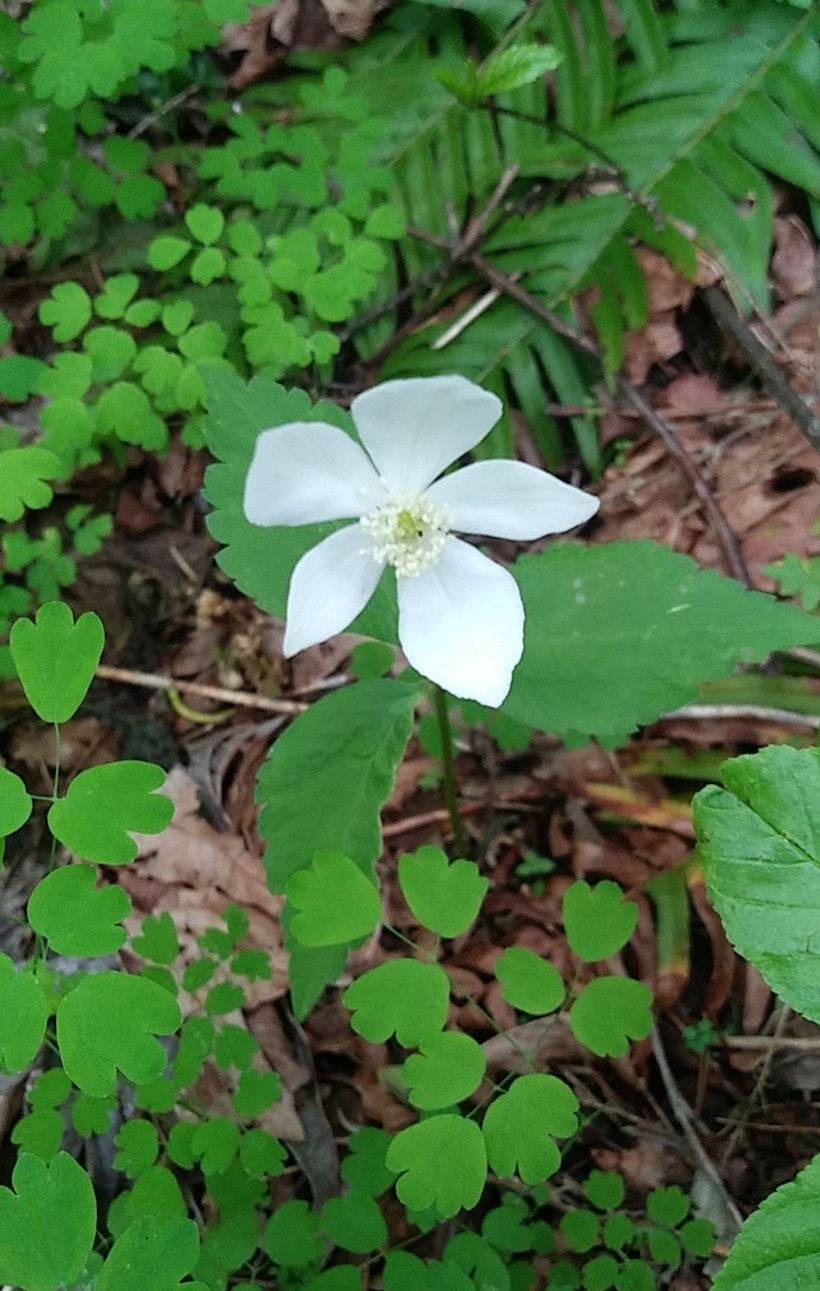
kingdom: Plantae
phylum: Tracheophyta
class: Magnoliopsida
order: Ranunculales
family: Ranunculaceae
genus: Anemonastrum
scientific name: Anemonastrum deltoideum
